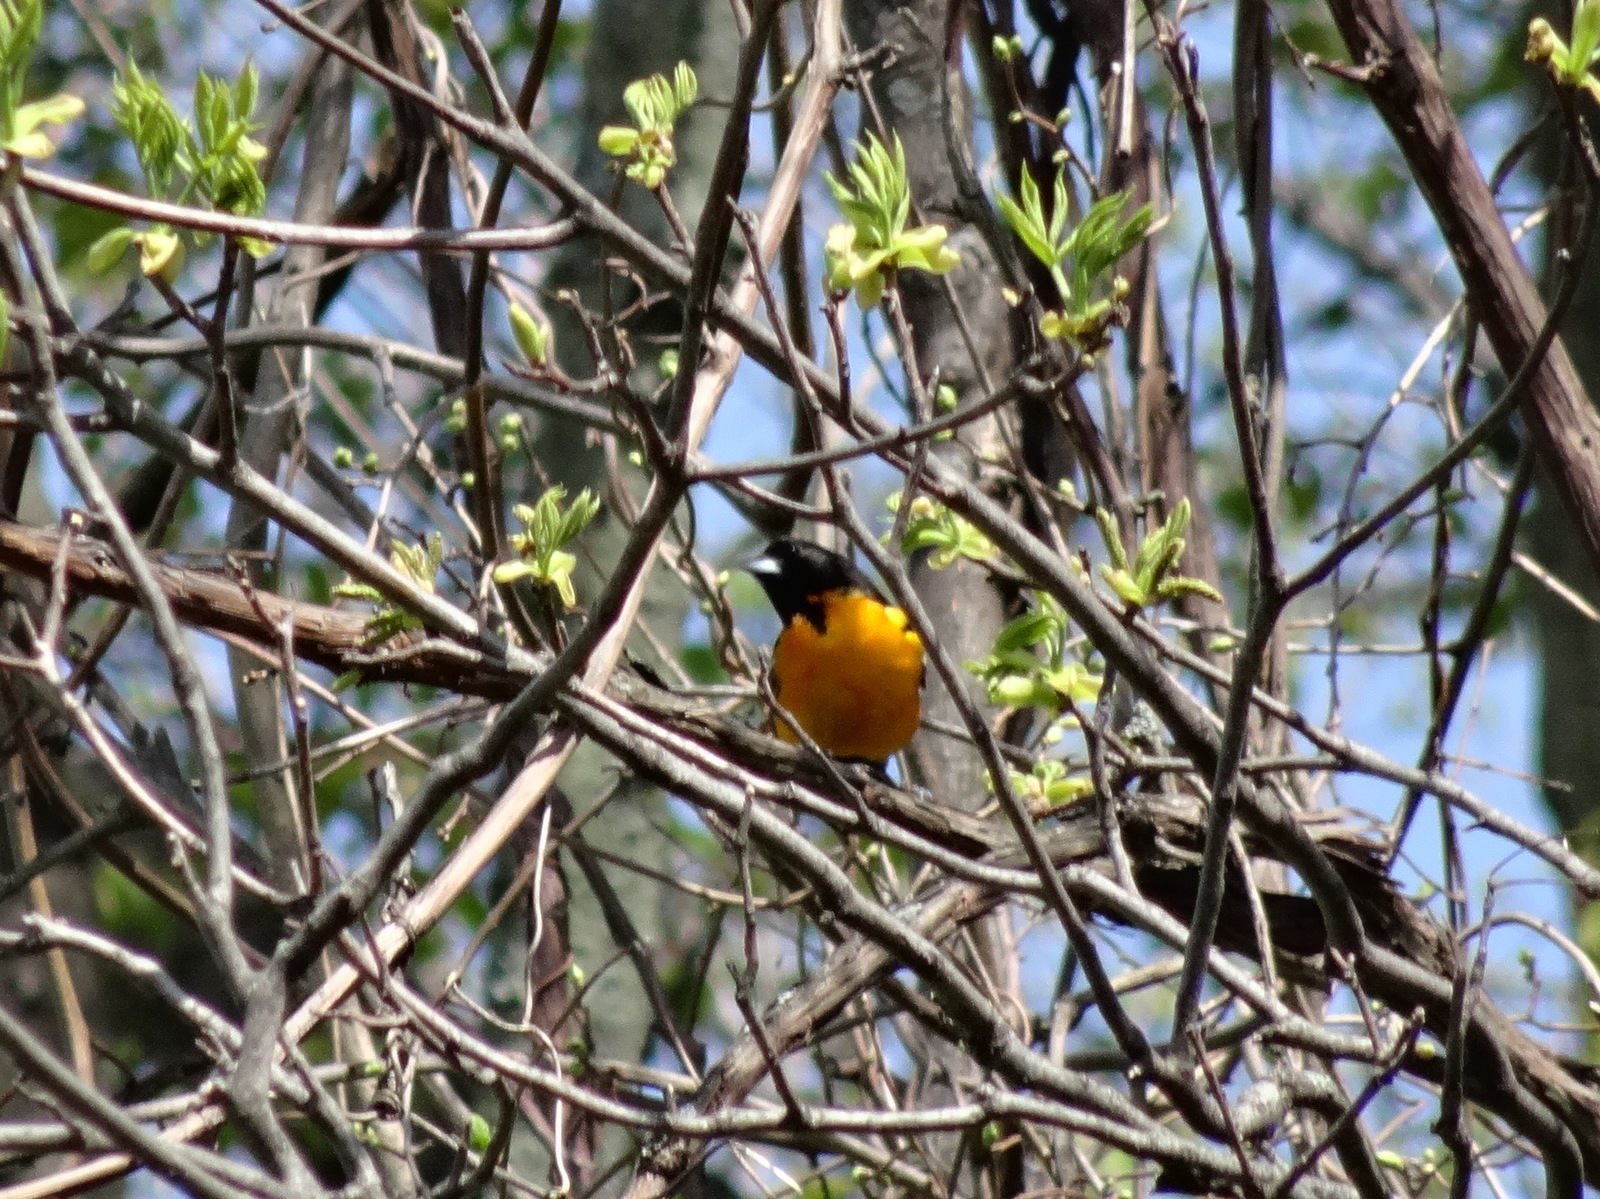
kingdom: Animalia
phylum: Chordata
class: Aves
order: Passeriformes
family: Icteridae
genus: Icterus
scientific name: Icterus galbula
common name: Baltimore oriole
